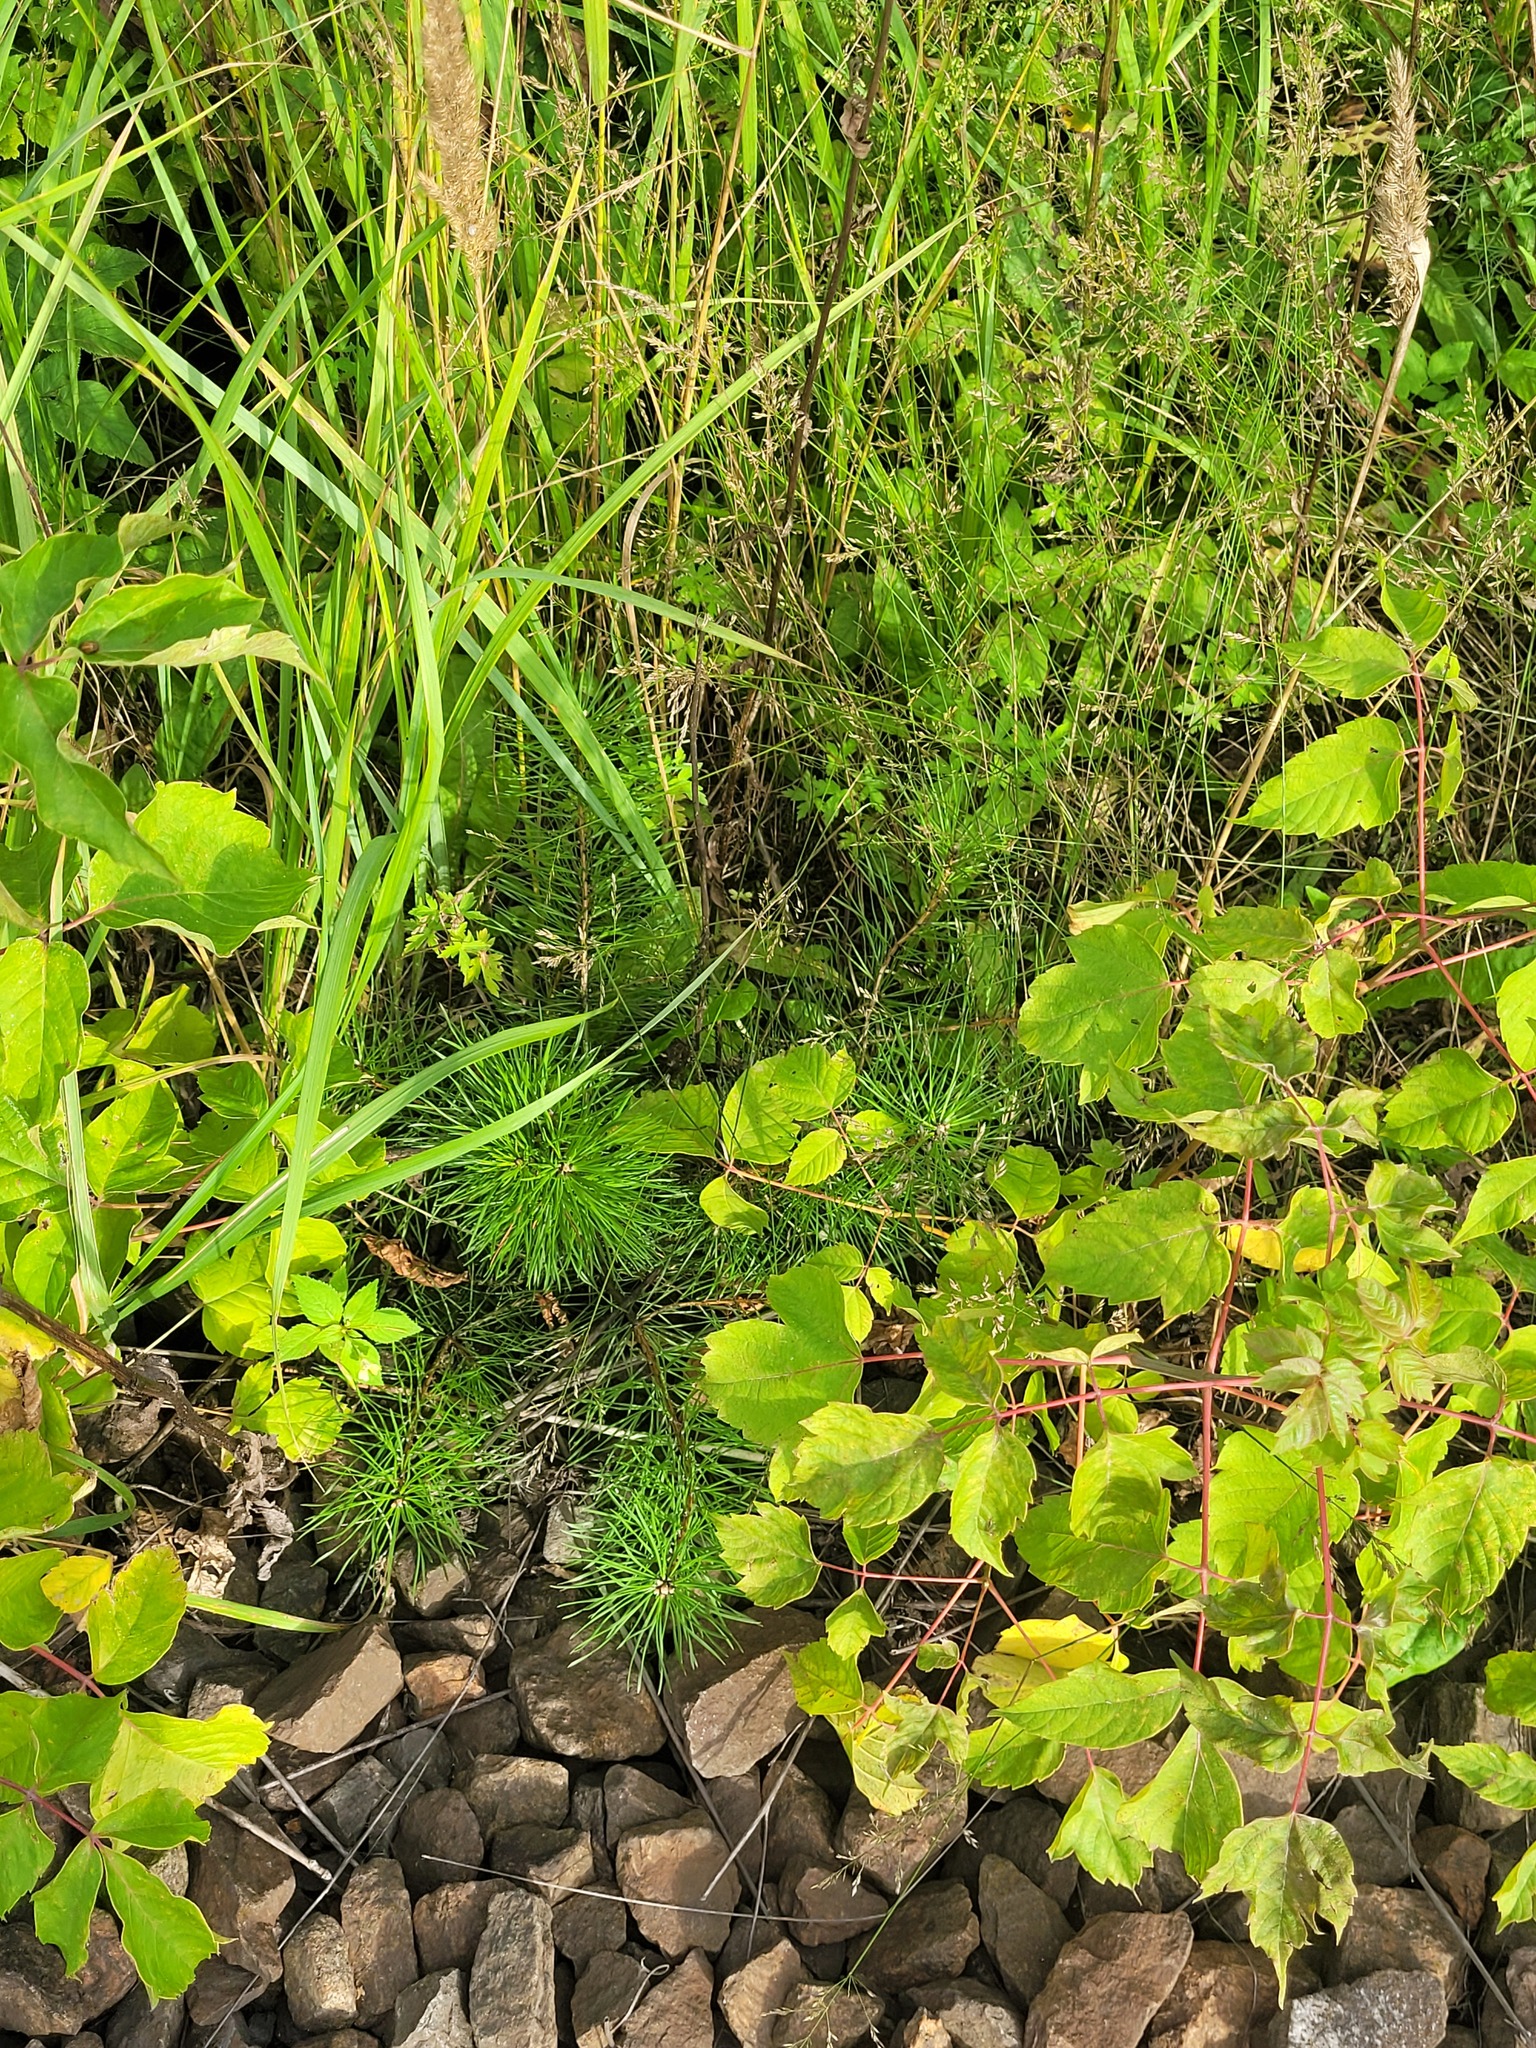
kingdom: Plantae
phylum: Tracheophyta
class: Pinopsida
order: Pinales
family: Pinaceae
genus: Pinus
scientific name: Pinus sylvestris
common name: Scots pine
